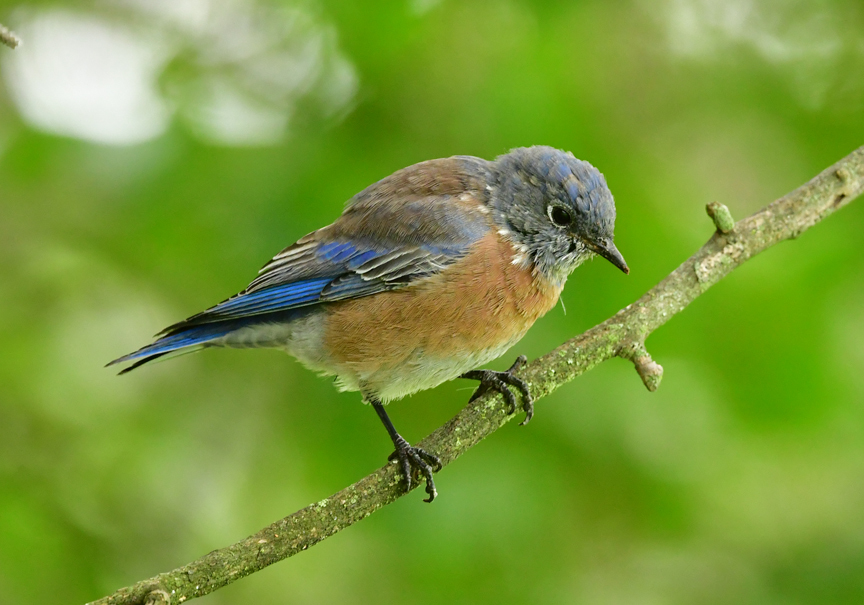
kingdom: Animalia
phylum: Chordata
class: Aves
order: Passeriformes
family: Turdidae
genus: Sialia
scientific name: Sialia mexicana
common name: Western bluebird
